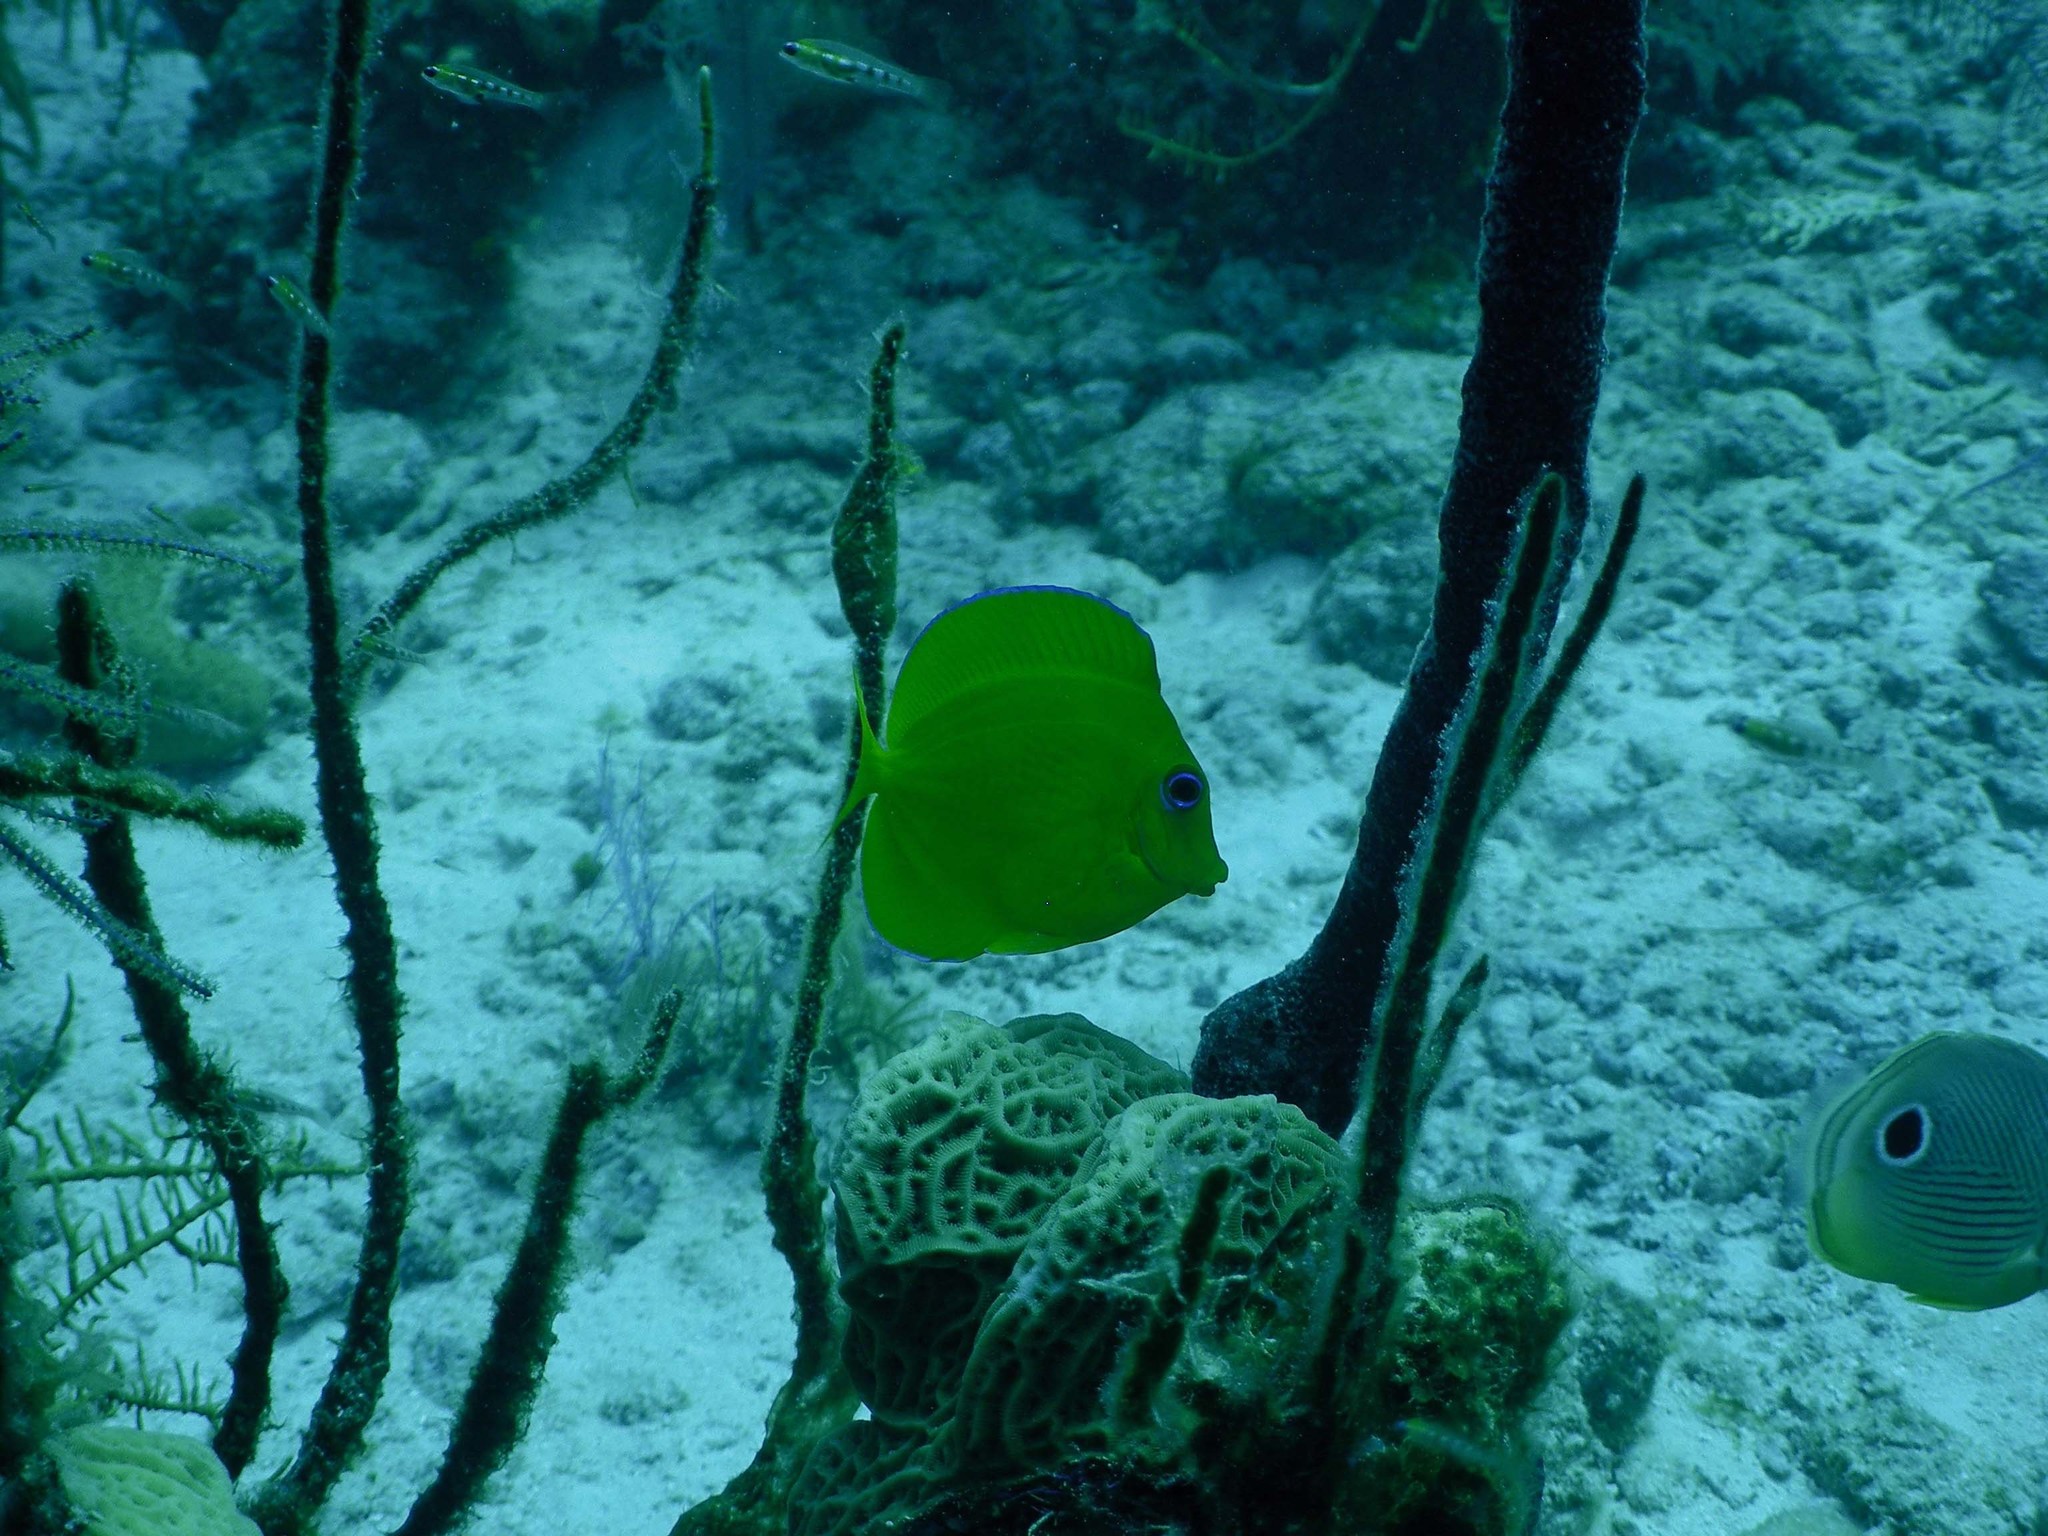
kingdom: Animalia
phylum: Chordata
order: Perciformes
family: Acanthuridae
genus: Acanthurus
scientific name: Acanthurus coeruleus
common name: Blue tang
